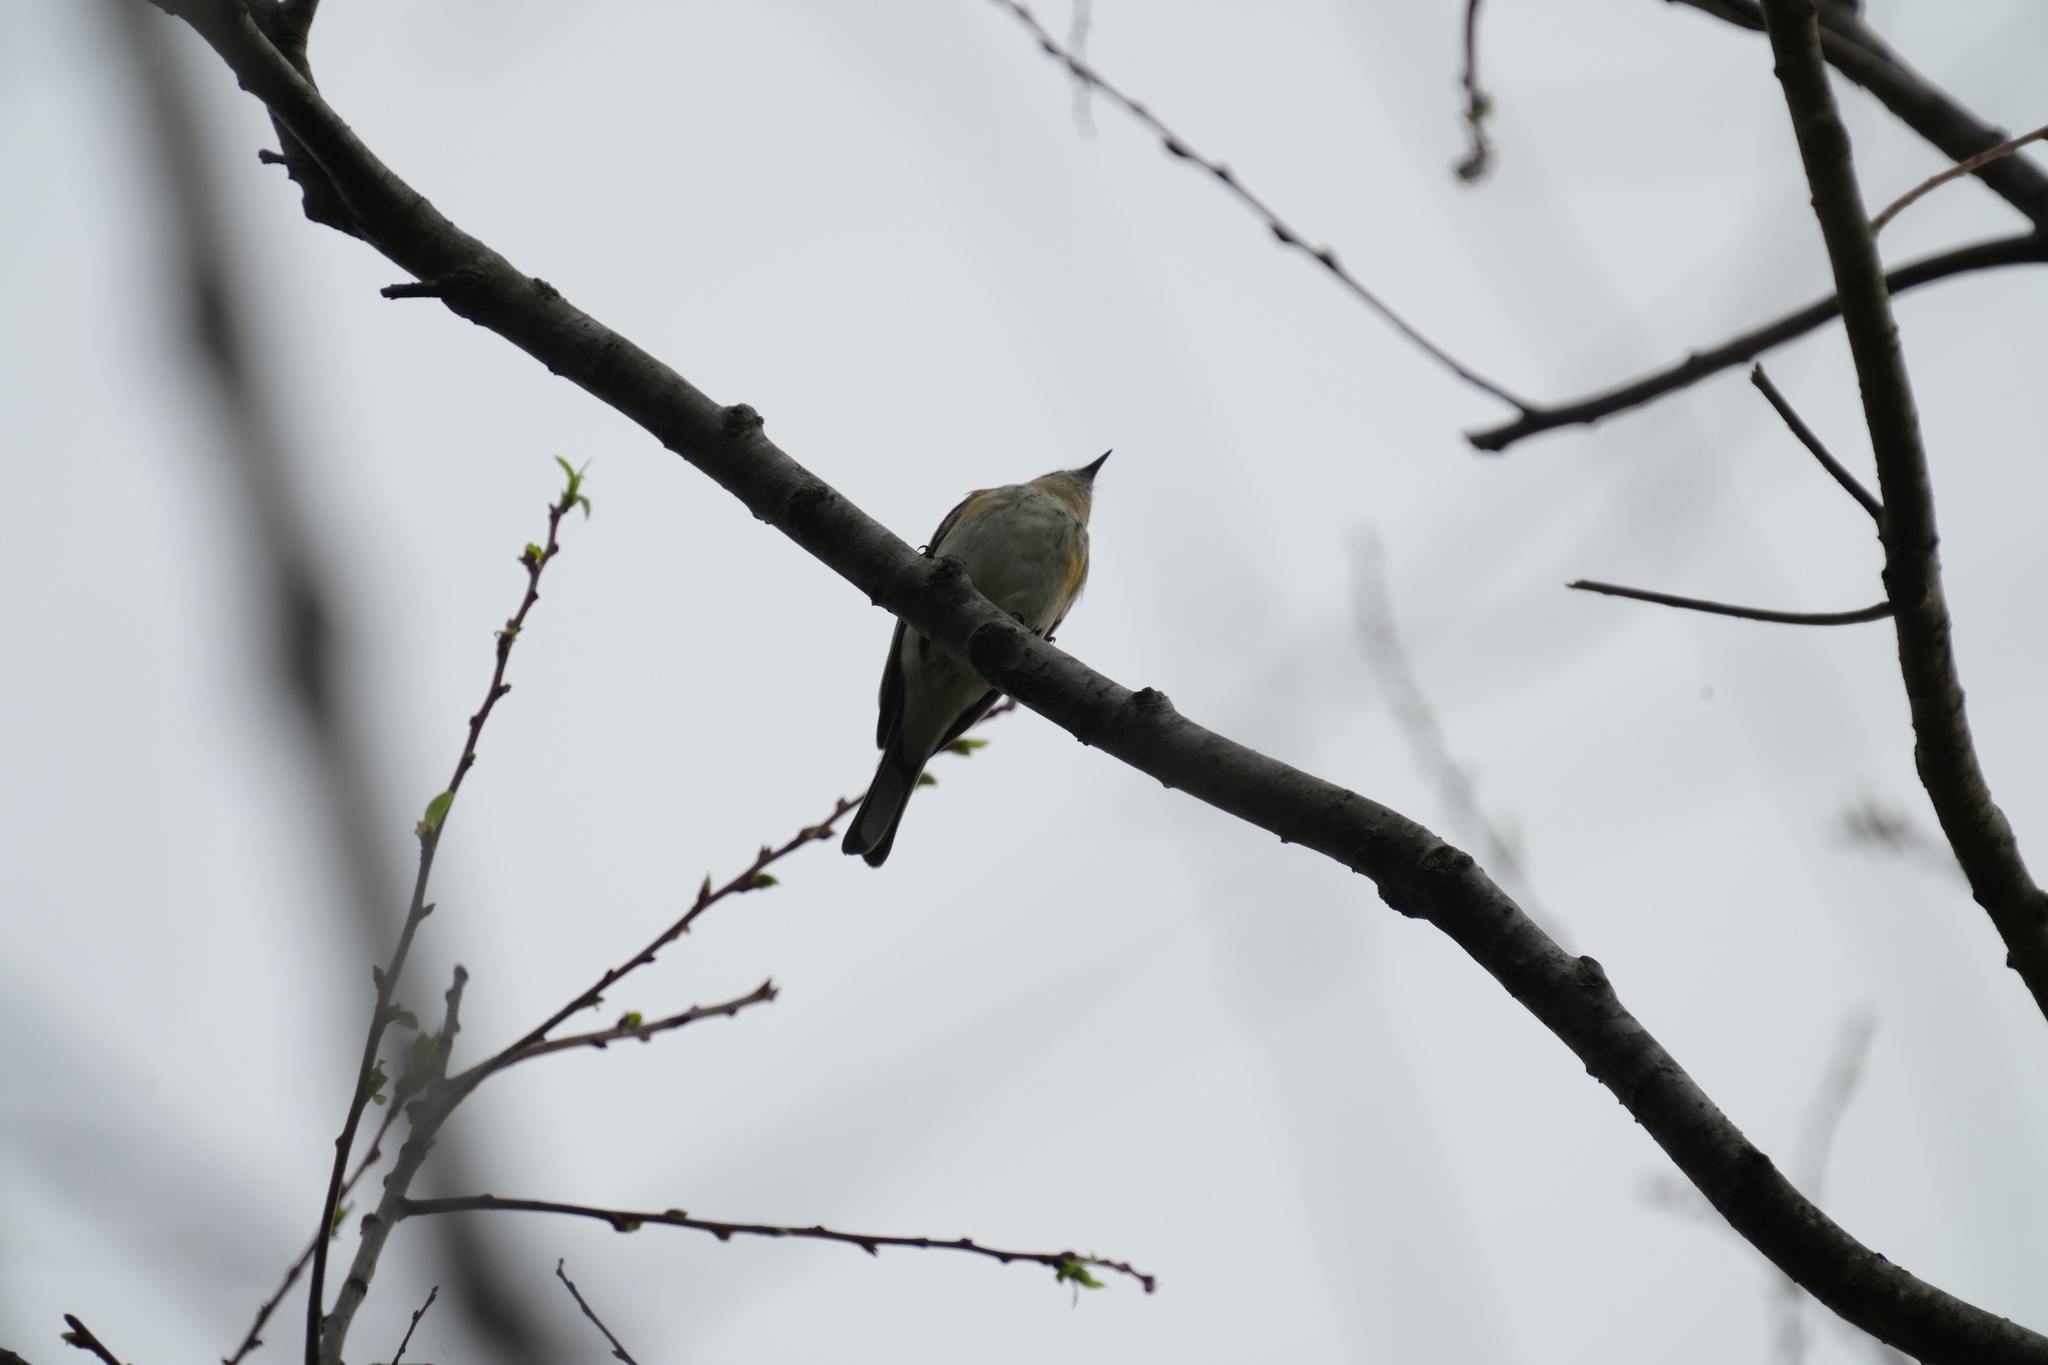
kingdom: Animalia
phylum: Chordata
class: Aves
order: Passeriformes
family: Parulidae
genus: Setophaga
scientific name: Setophaga coronata
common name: Myrtle warbler
